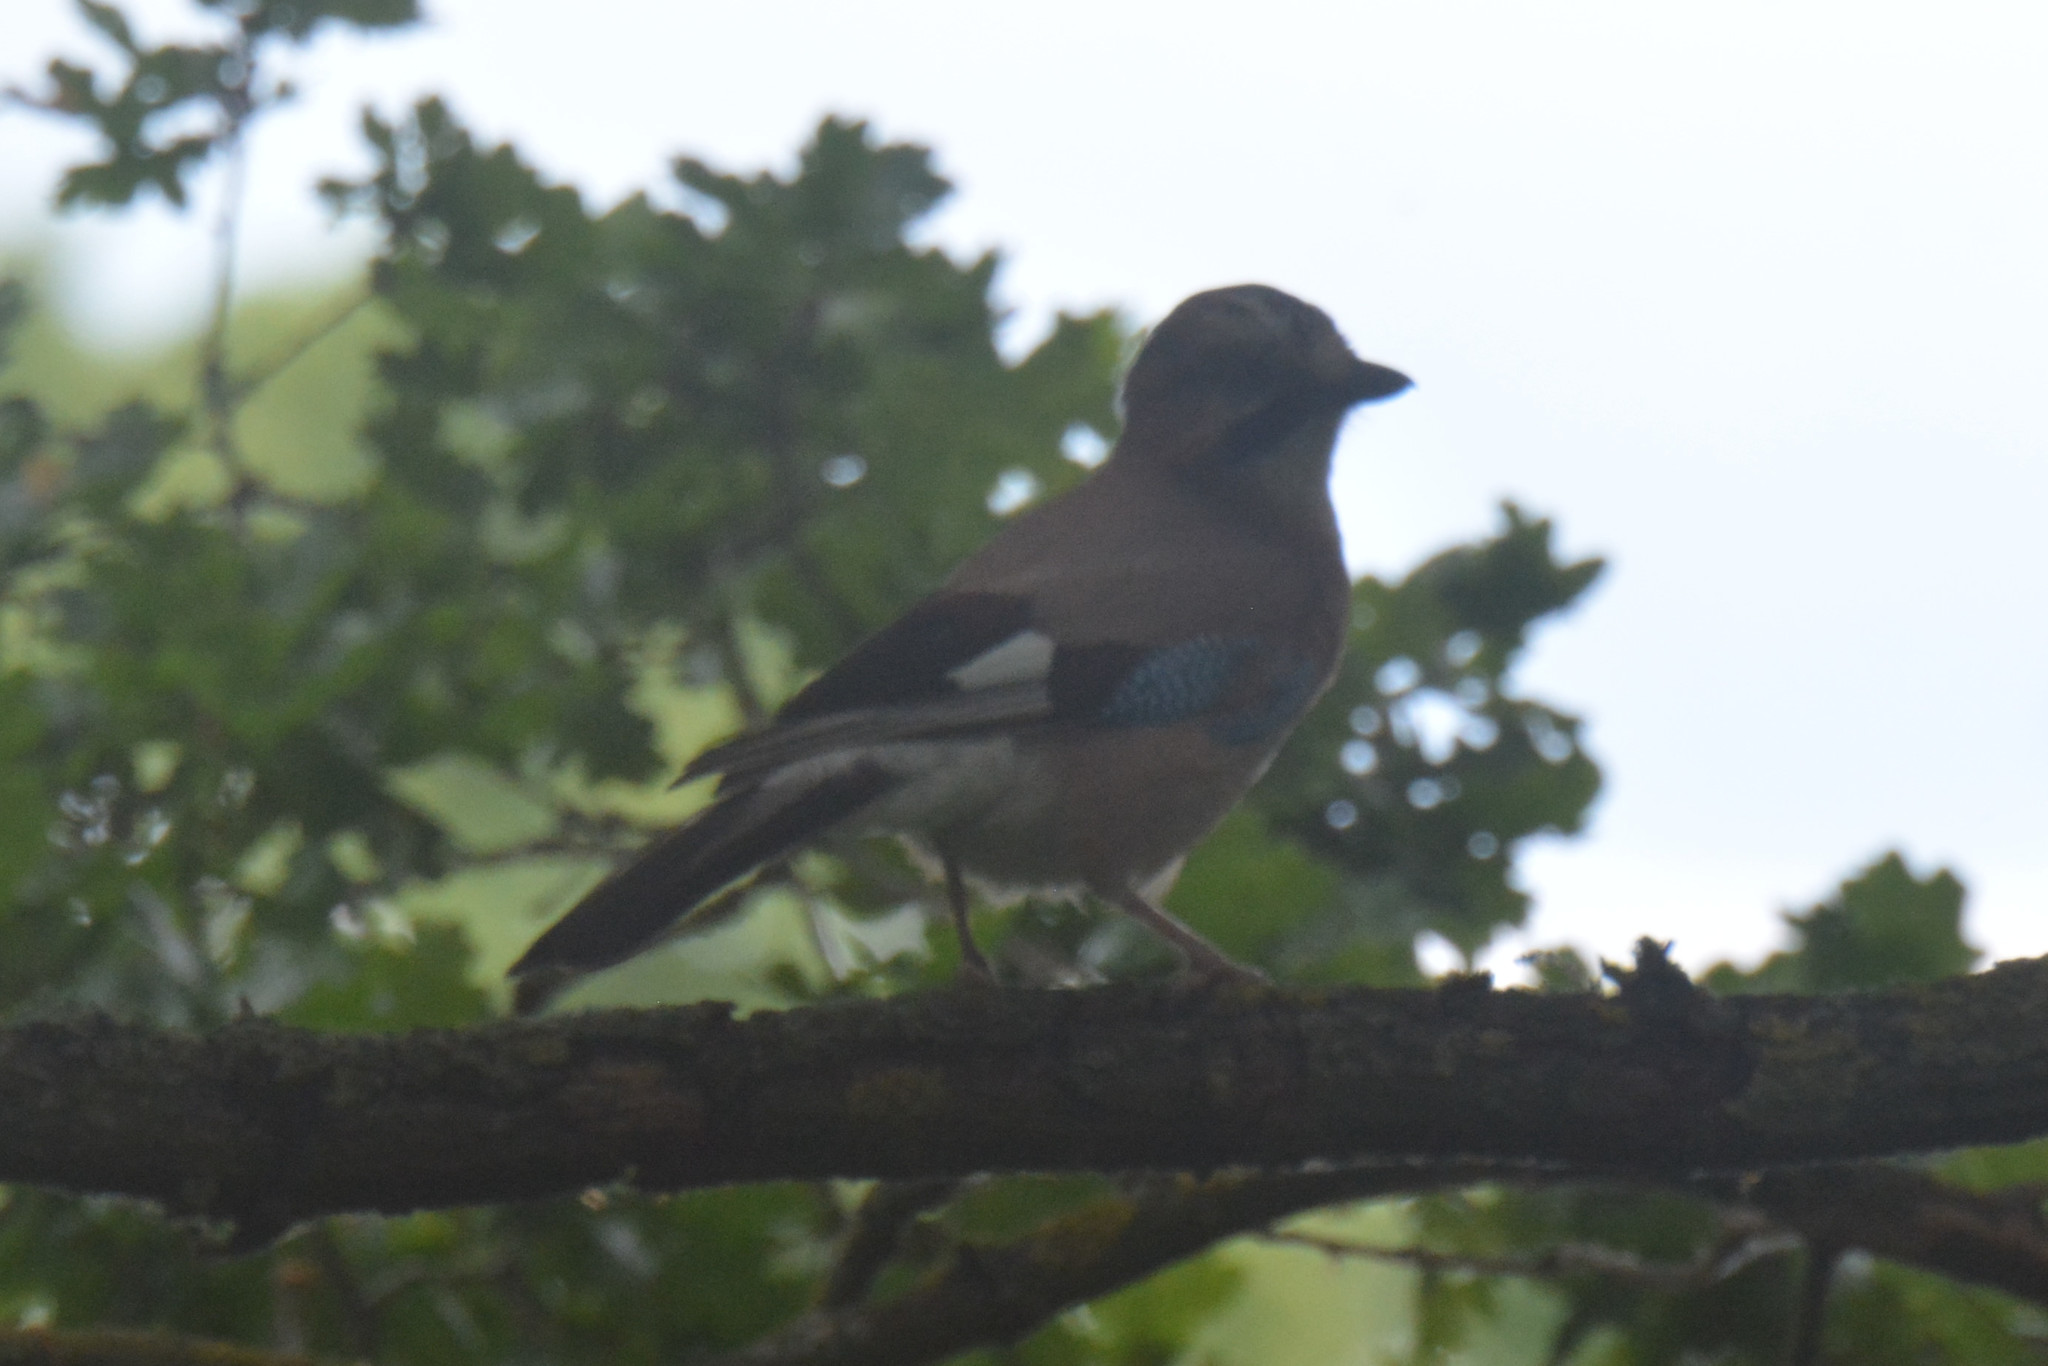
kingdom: Animalia
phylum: Chordata
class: Aves
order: Passeriformes
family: Corvidae
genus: Garrulus
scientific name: Garrulus glandarius
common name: Eurasian jay
